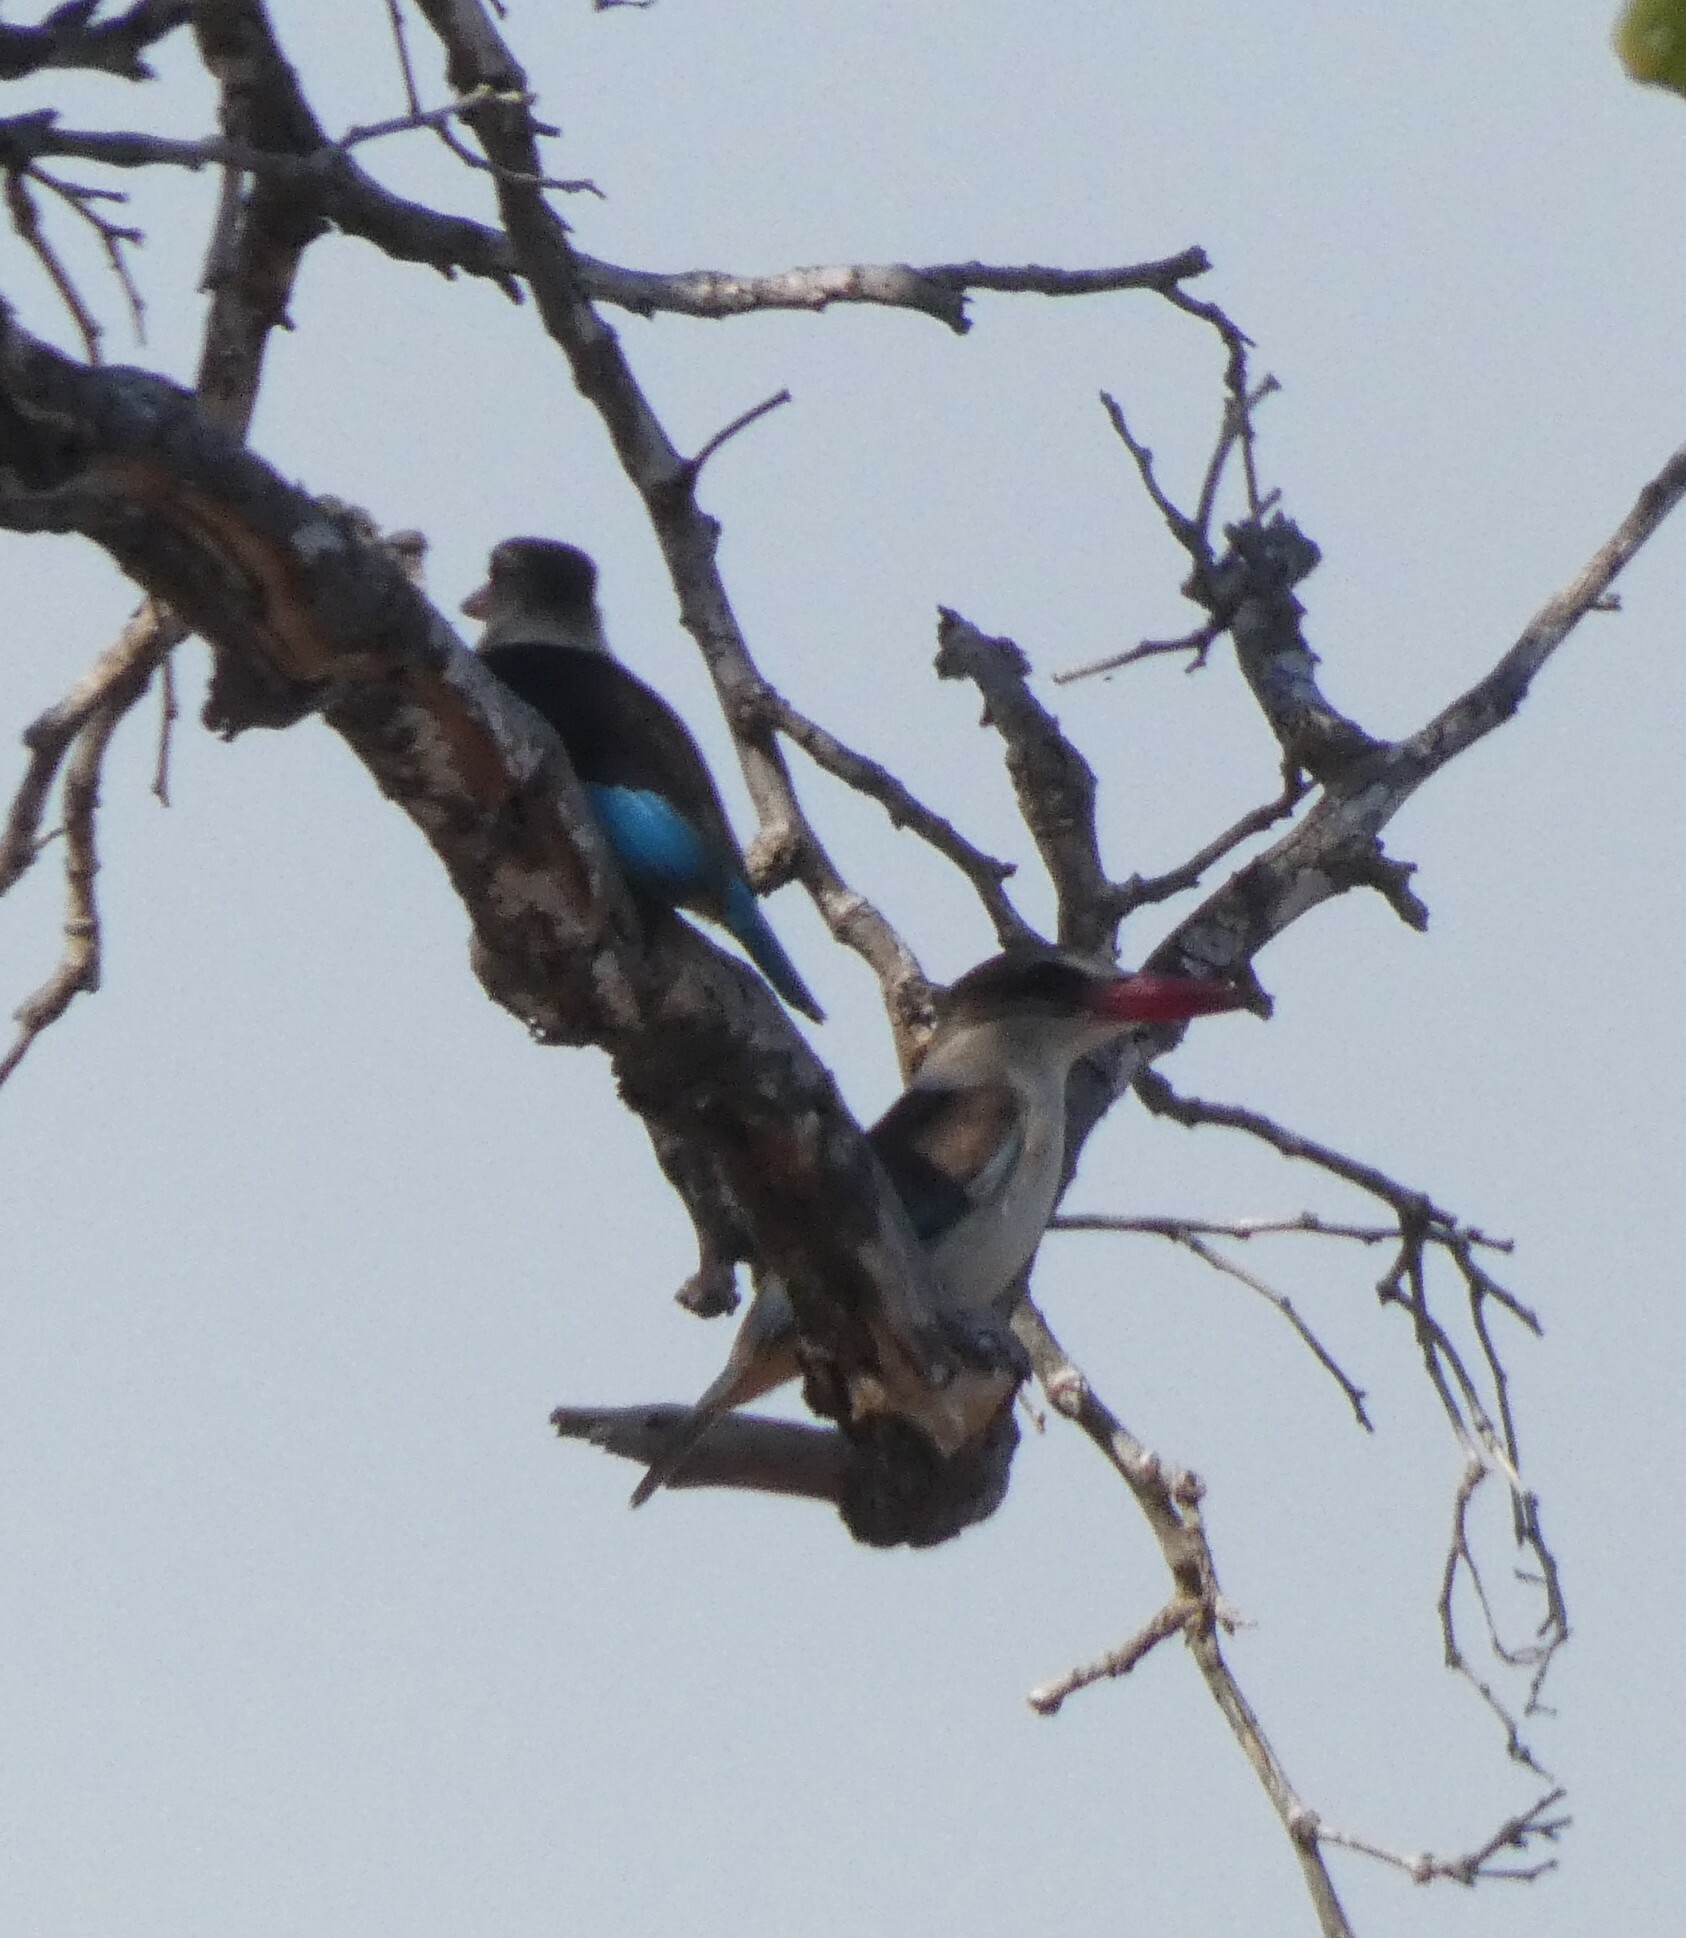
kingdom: Animalia
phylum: Chordata
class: Aves
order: Coraciiformes
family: Alcedinidae
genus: Halcyon
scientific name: Halcyon albiventris
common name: Brown-hooded kingfisher
